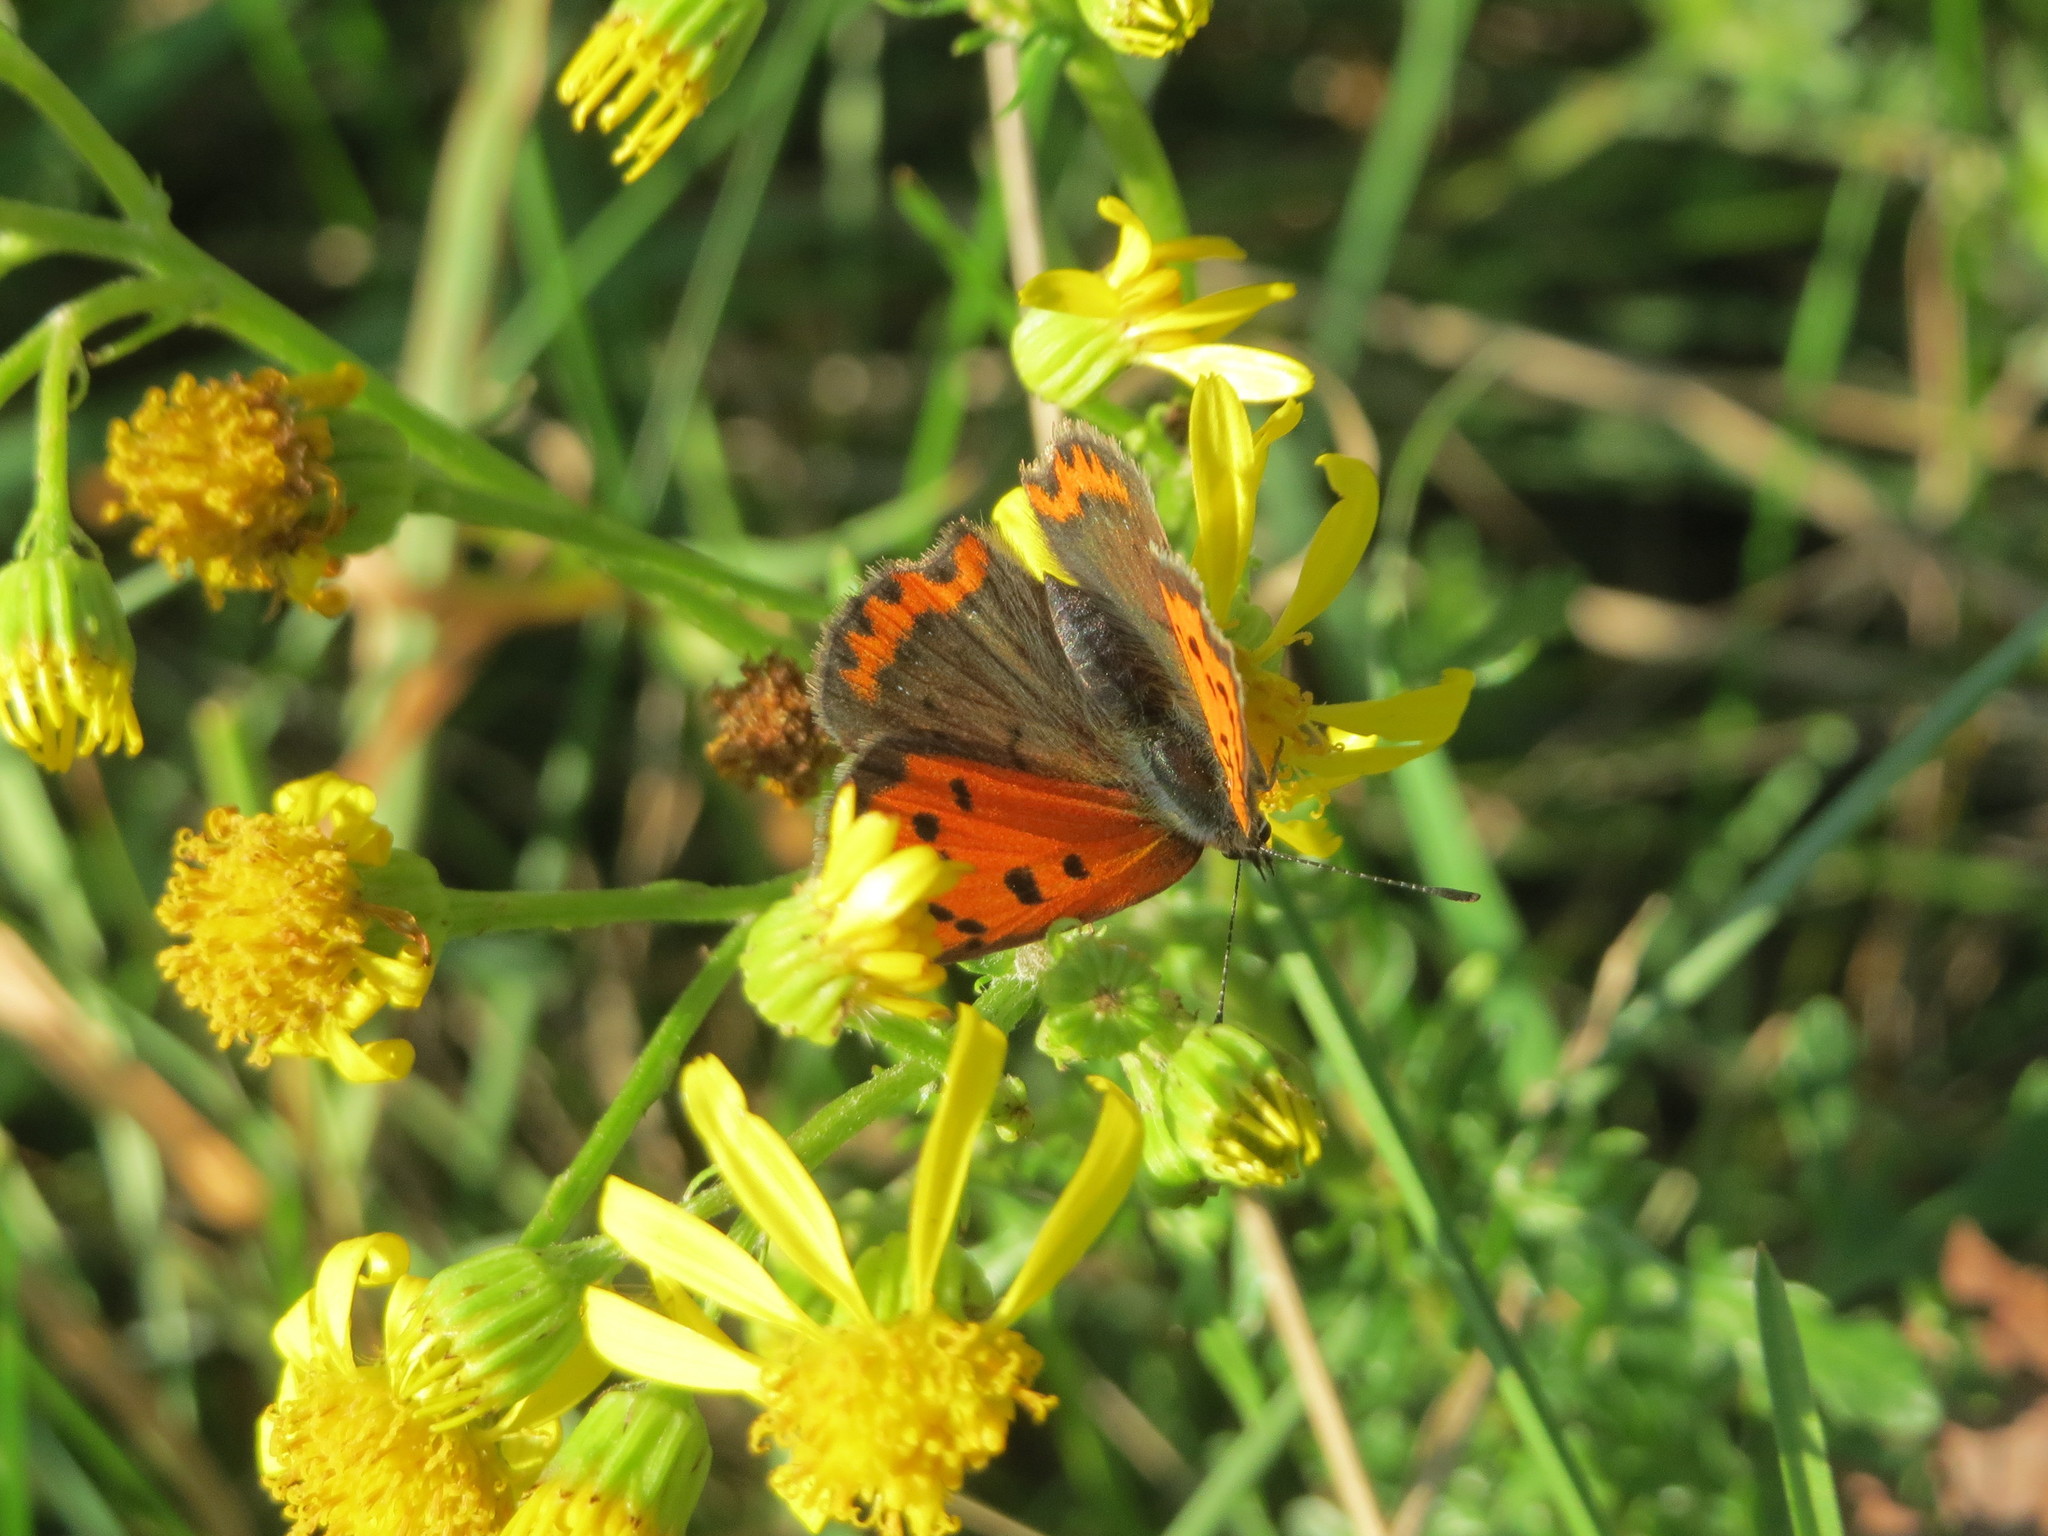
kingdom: Animalia
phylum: Arthropoda
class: Insecta
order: Lepidoptera
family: Lycaenidae
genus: Lycaena
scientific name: Lycaena phlaeas
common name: Small copper
